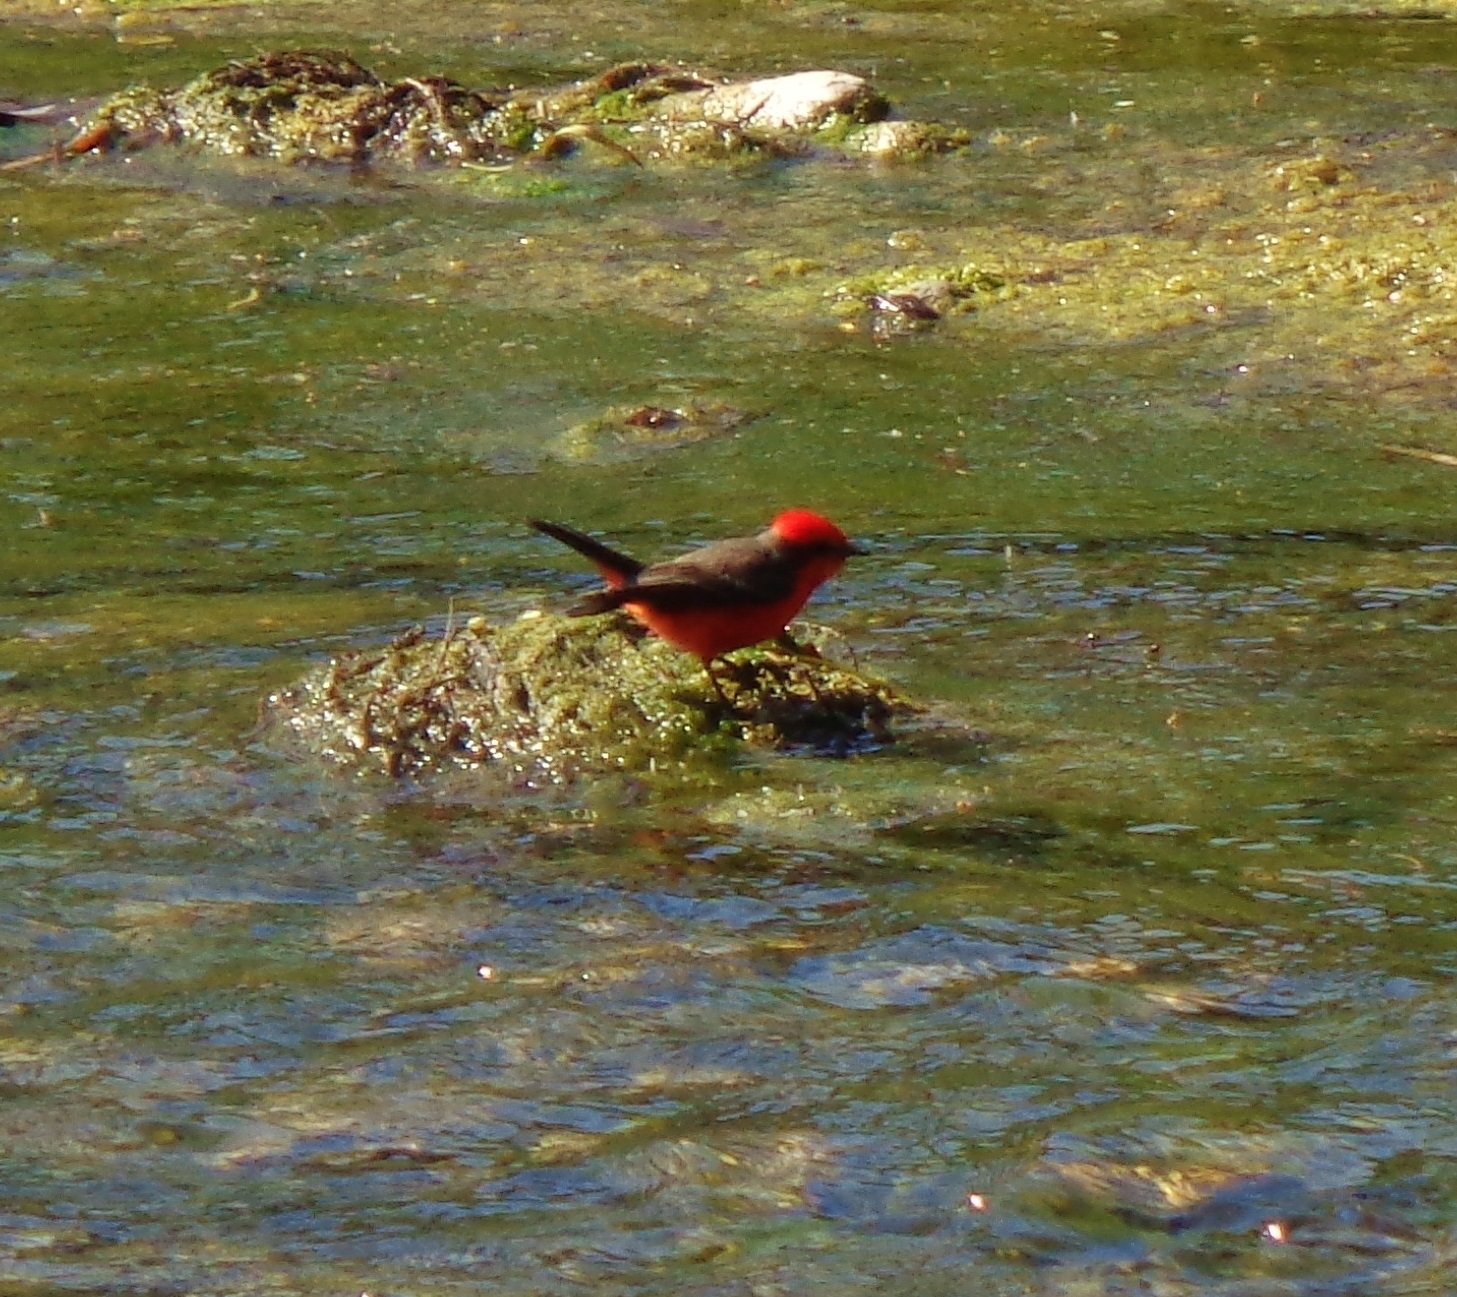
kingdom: Animalia
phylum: Chordata
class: Aves
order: Passeriformes
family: Tyrannidae
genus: Pyrocephalus
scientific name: Pyrocephalus rubinus
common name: Vermilion flycatcher
